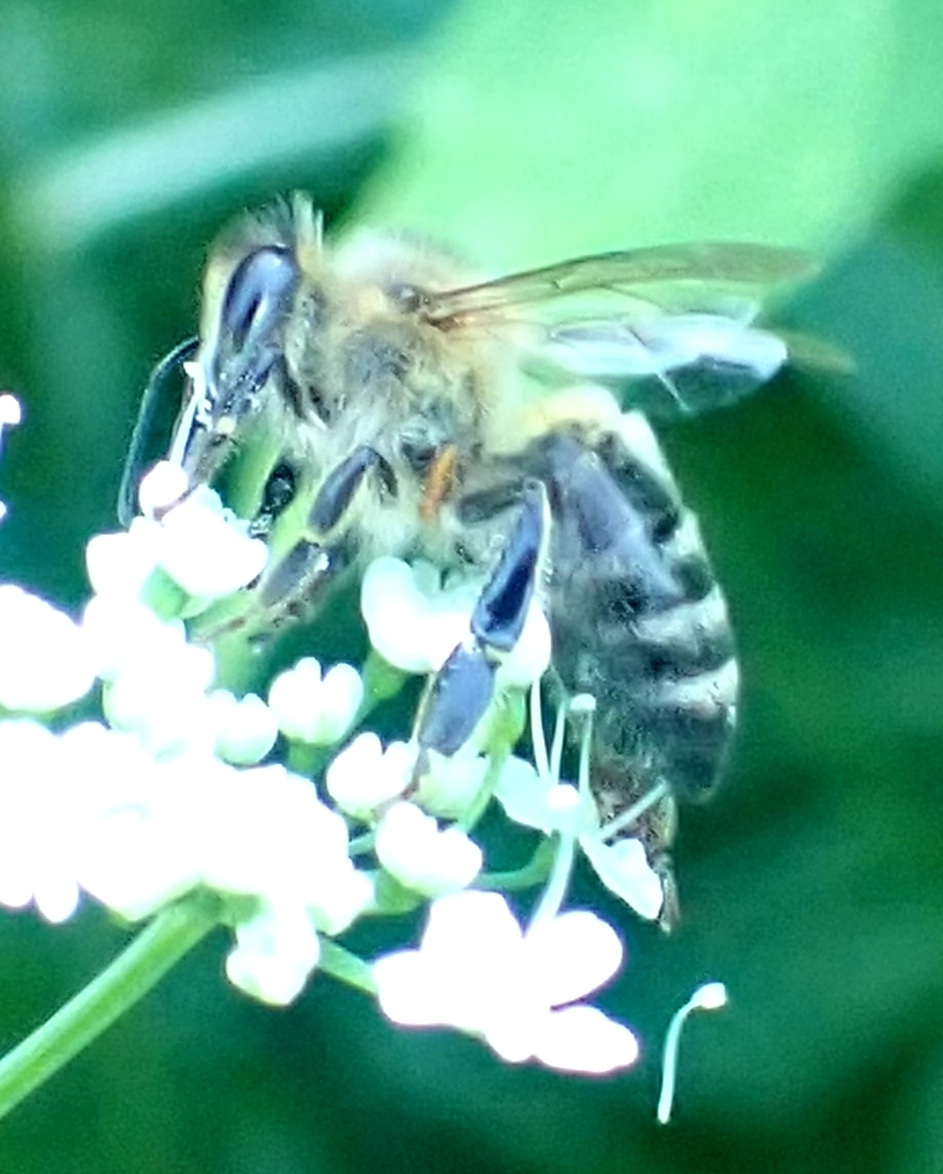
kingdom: Animalia
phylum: Arthropoda
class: Insecta
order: Hymenoptera
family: Apidae
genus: Apis
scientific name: Apis mellifera
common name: Honey bee
